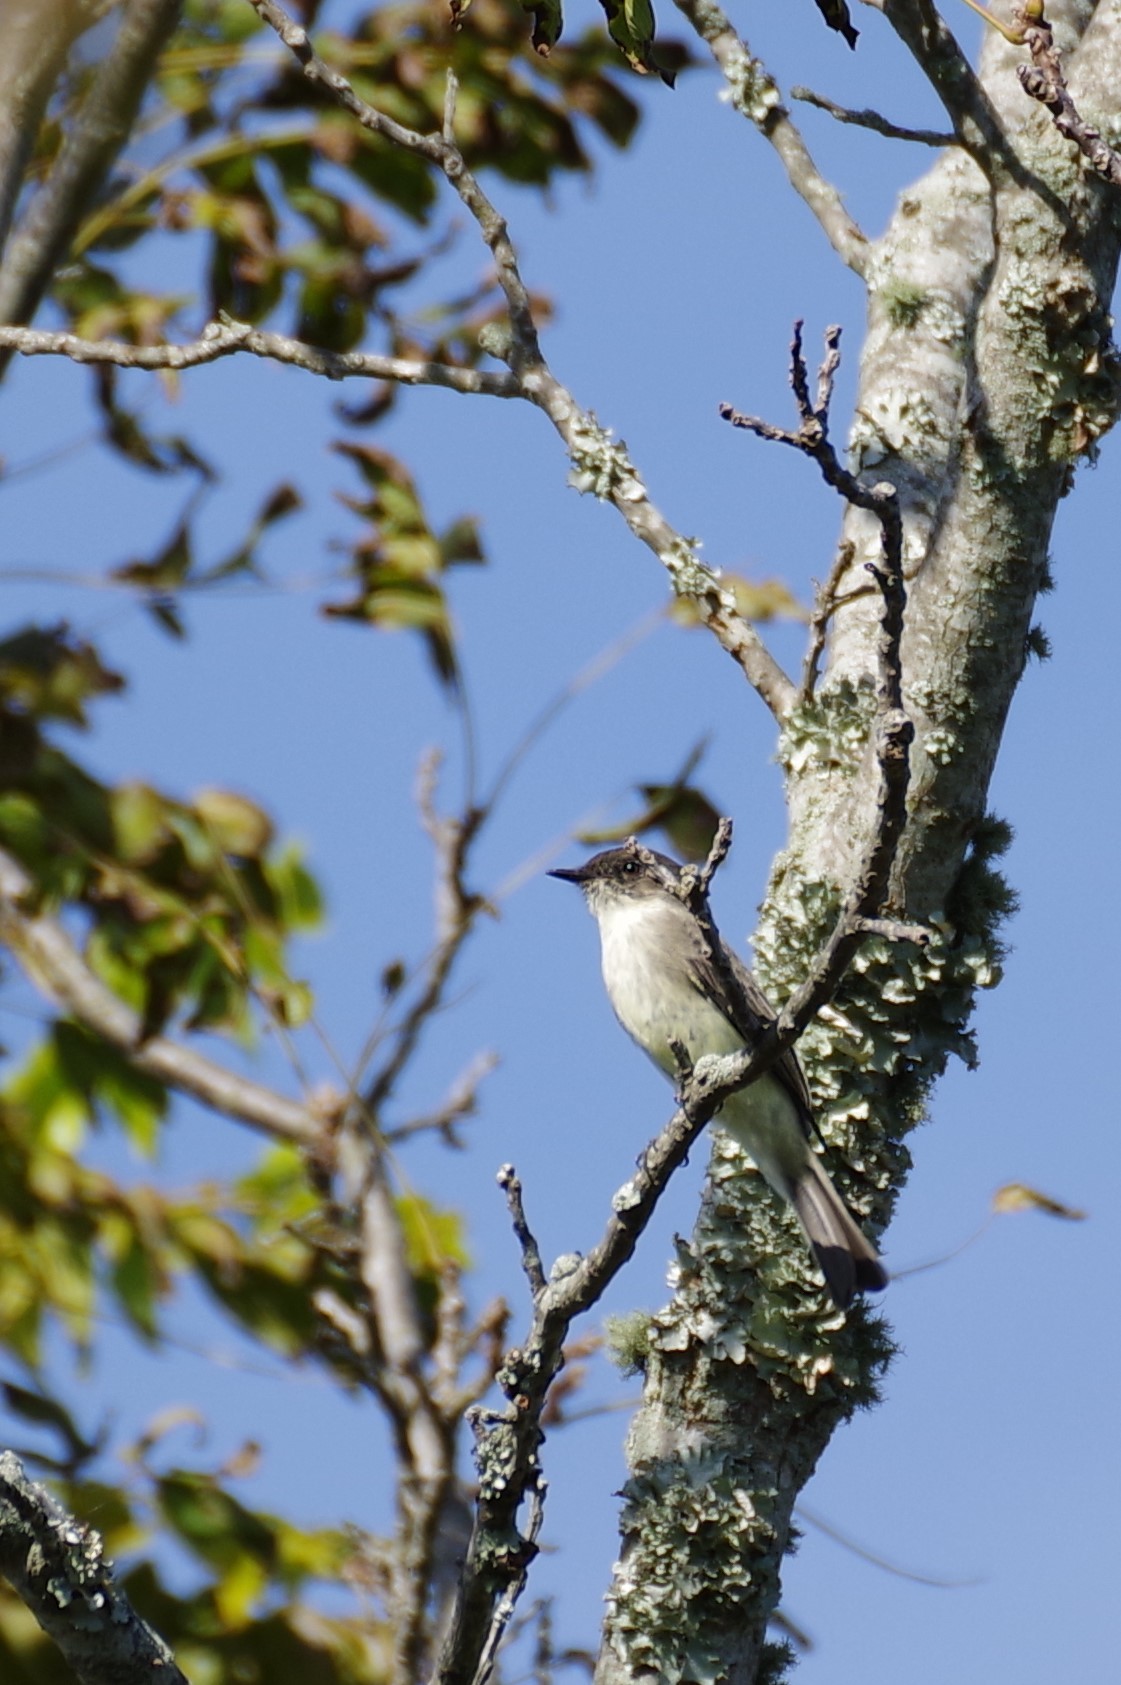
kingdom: Animalia
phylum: Chordata
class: Aves
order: Passeriformes
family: Tyrannidae
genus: Sayornis
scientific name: Sayornis phoebe
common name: Eastern phoebe
